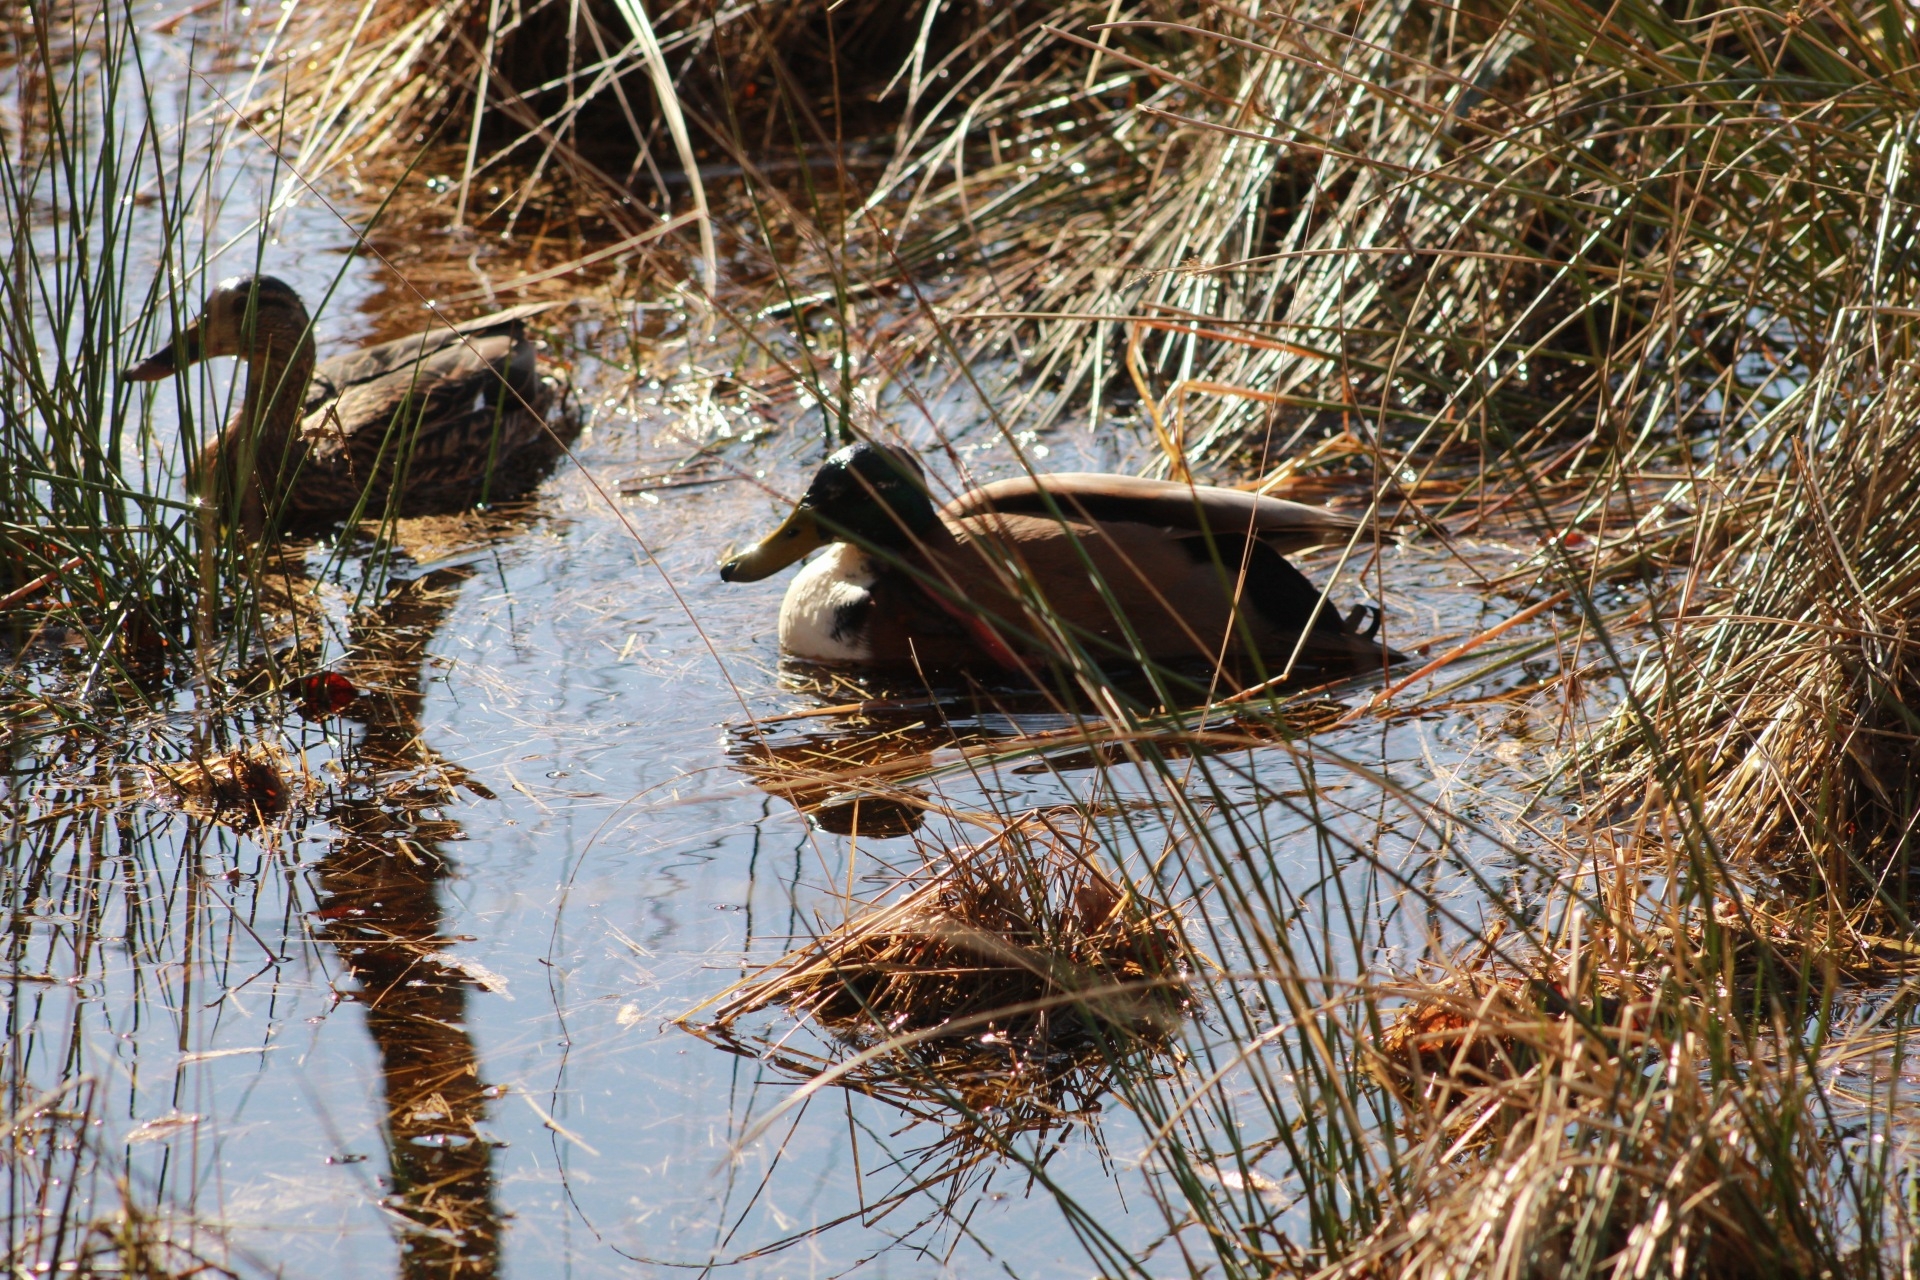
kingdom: Animalia
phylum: Chordata
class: Aves
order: Anseriformes
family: Anatidae
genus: Anas
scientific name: Anas platyrhynchos
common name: Mallard
